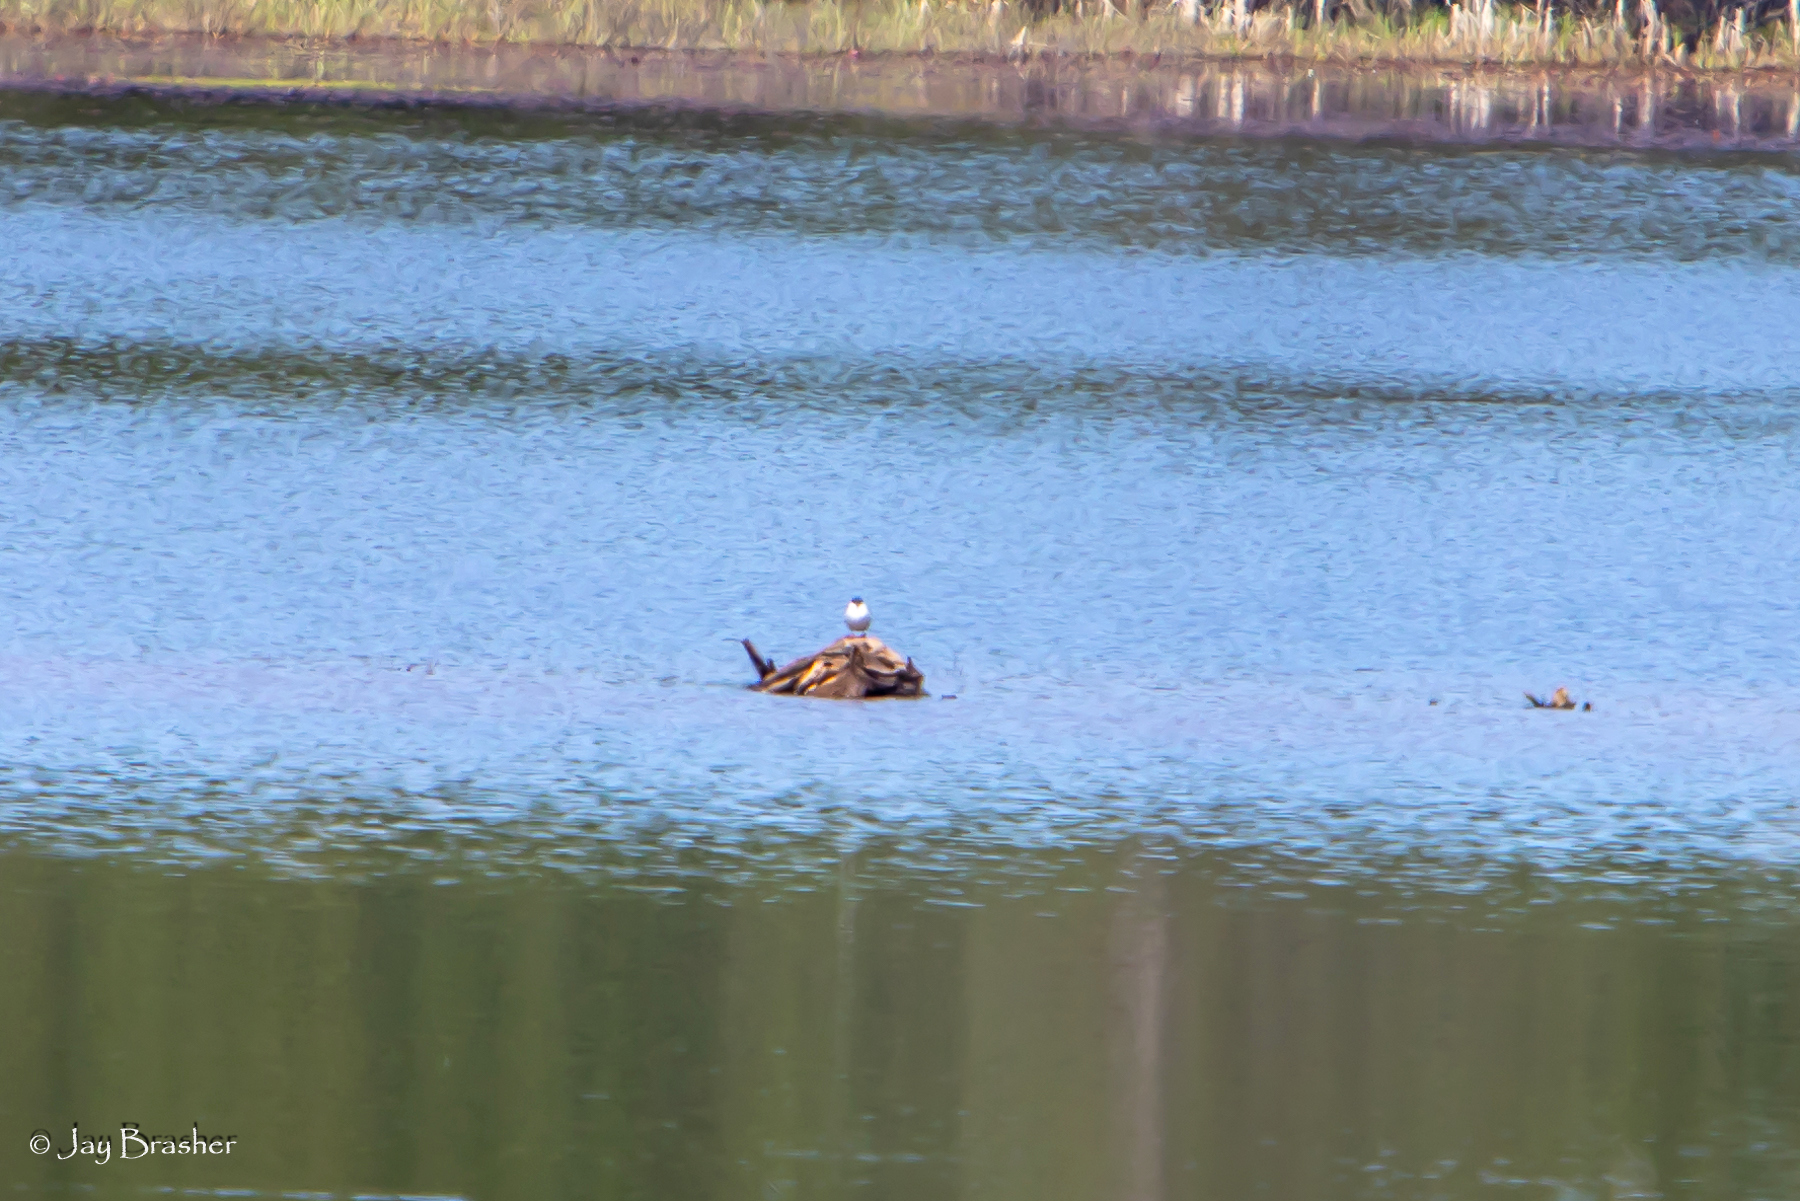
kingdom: Animalia
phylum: Chordata
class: Aves
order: Charadriiformes
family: Laridae
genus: Sterna
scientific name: Sterna hirundo
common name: Common tern
